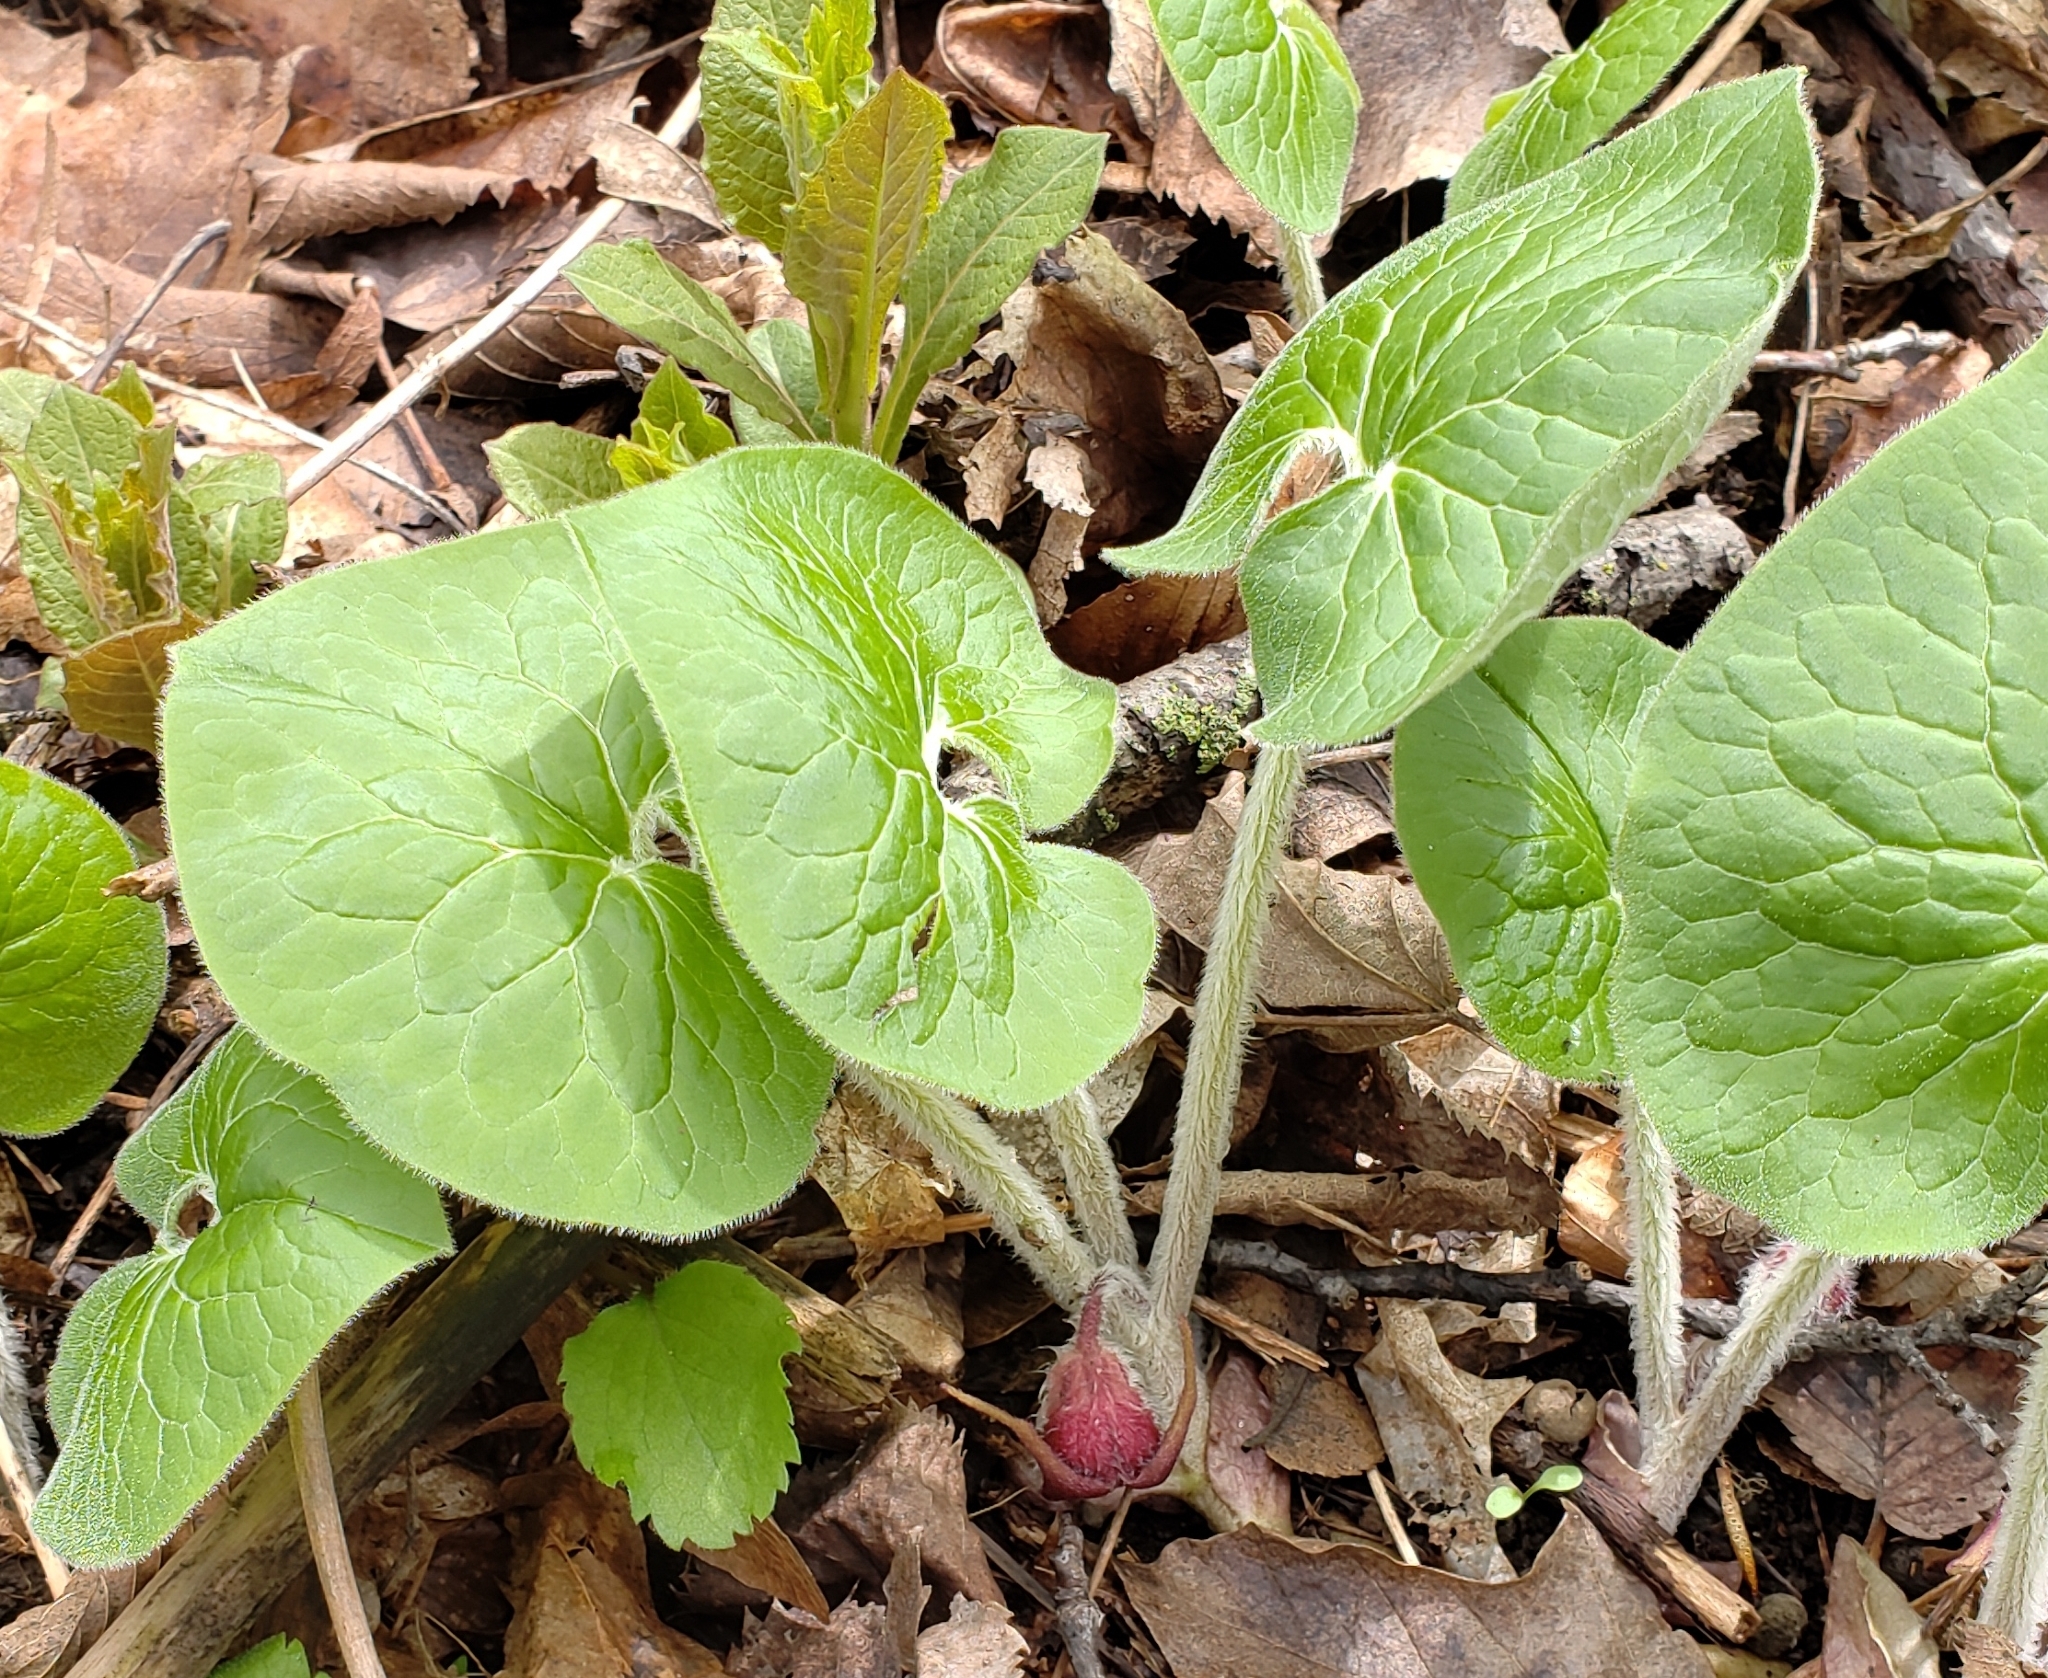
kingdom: Plantae
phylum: Tracheophyta
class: Magnoliopsida
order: Piperales
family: Aristolochiaceae
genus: Asarum
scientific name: Asarum canadense
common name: Wild ginger
